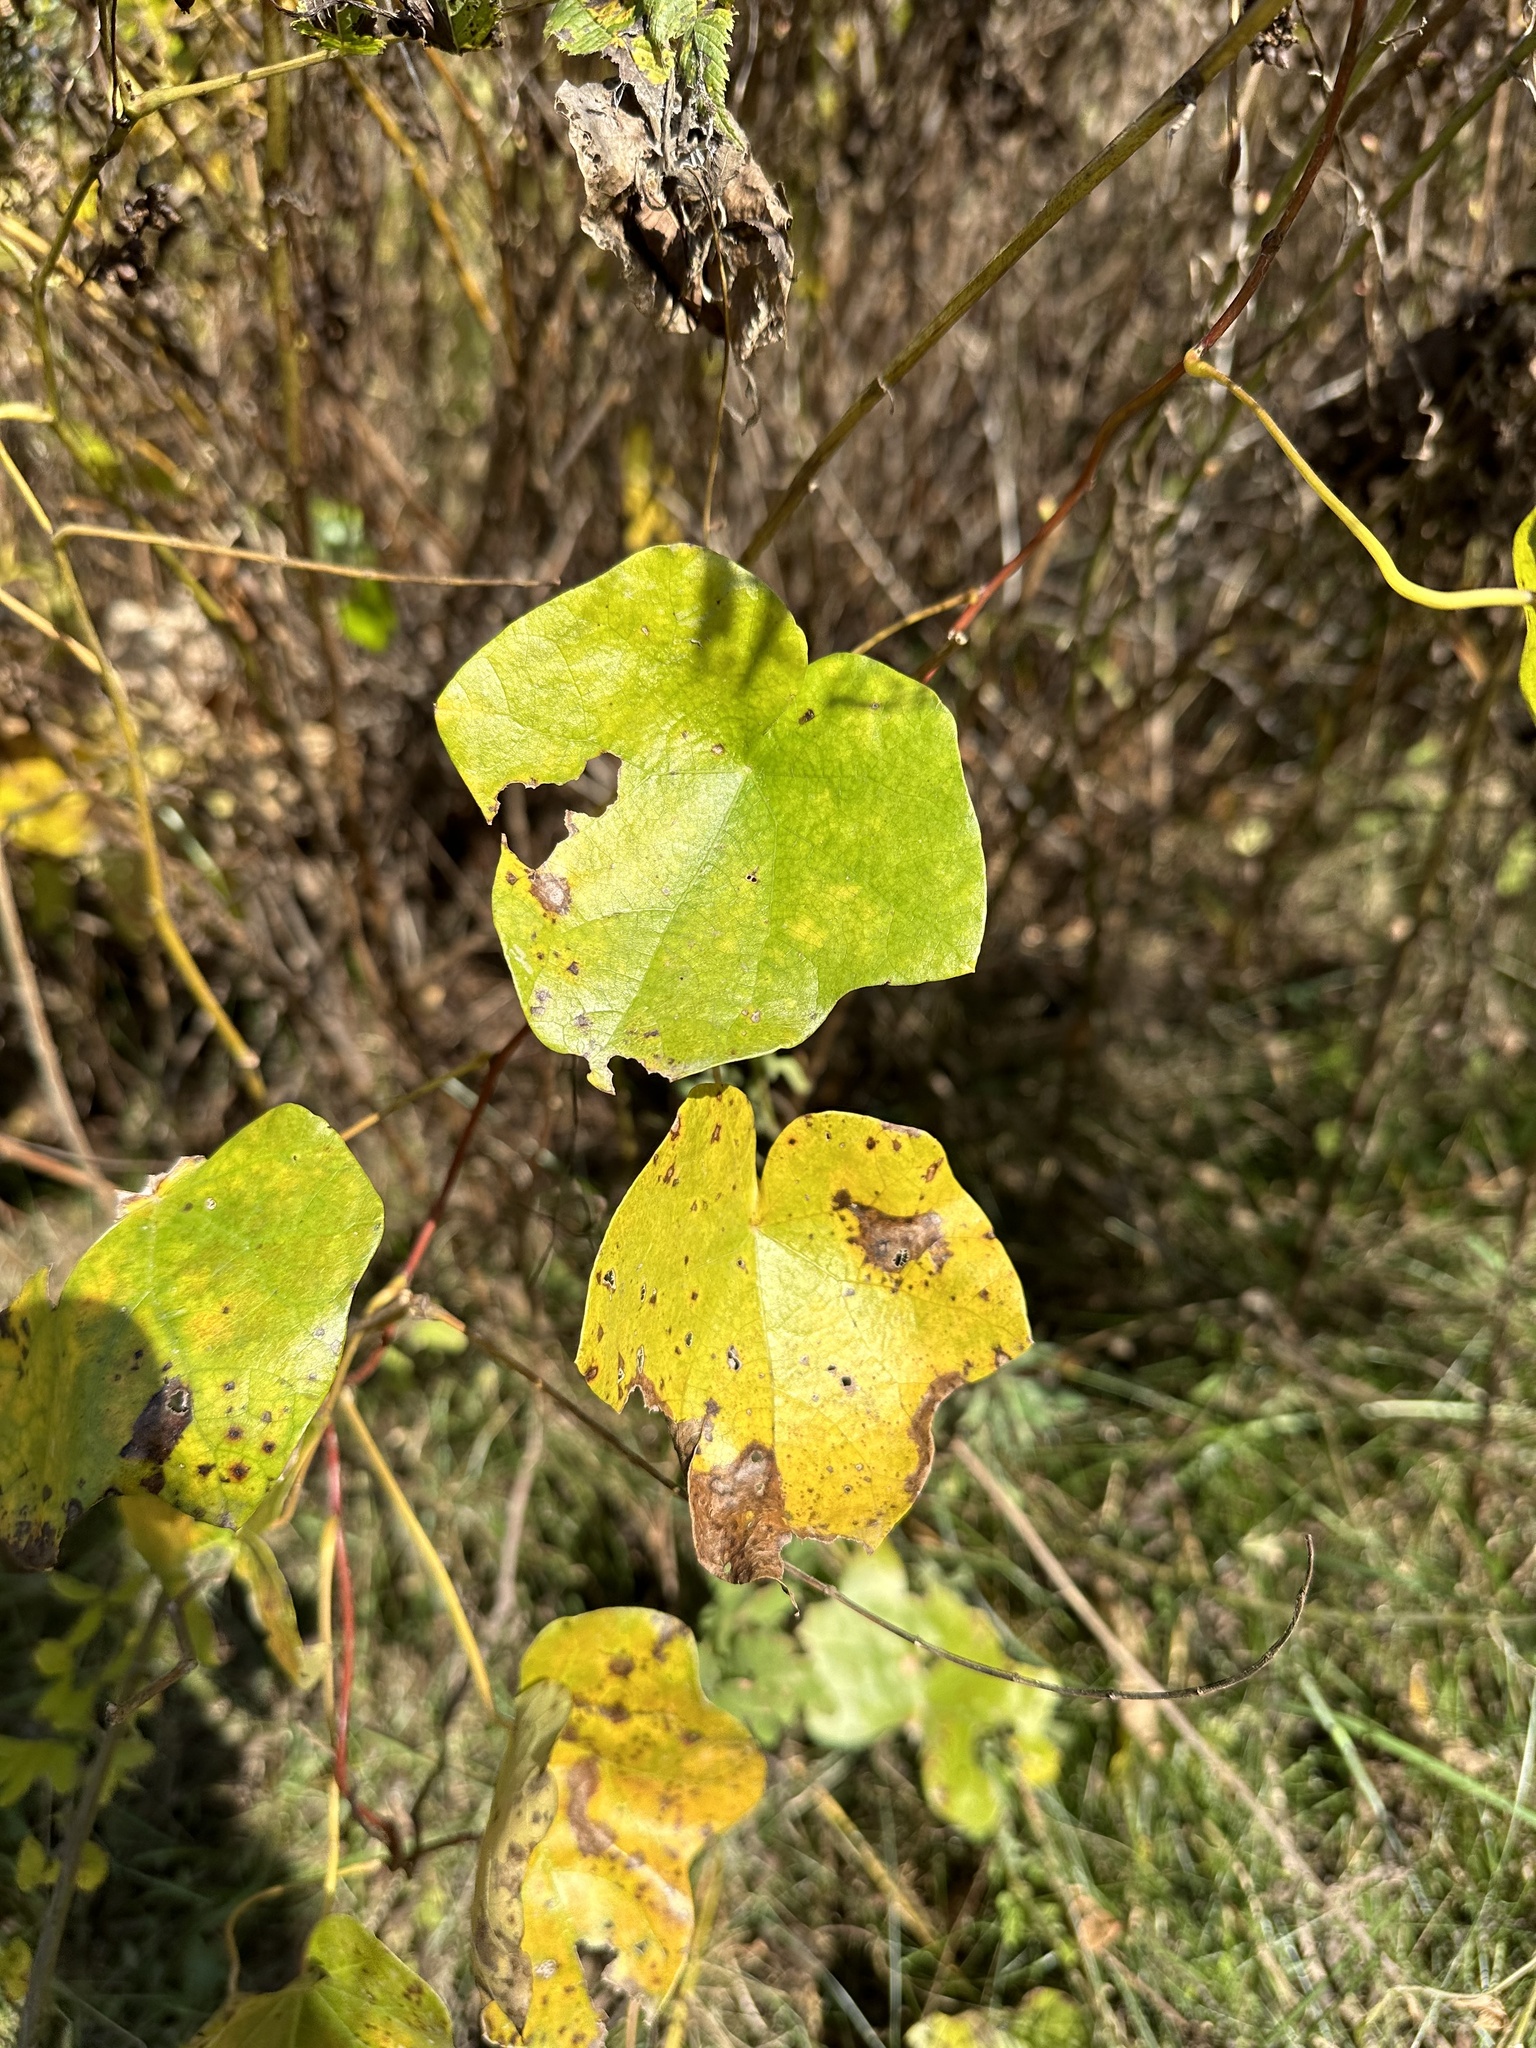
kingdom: Plantae
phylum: Tracheophyta
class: Magnoliopsida
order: Ranunculales
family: Menispermaceae
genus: Menispermum
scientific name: Menispermum dauricum
